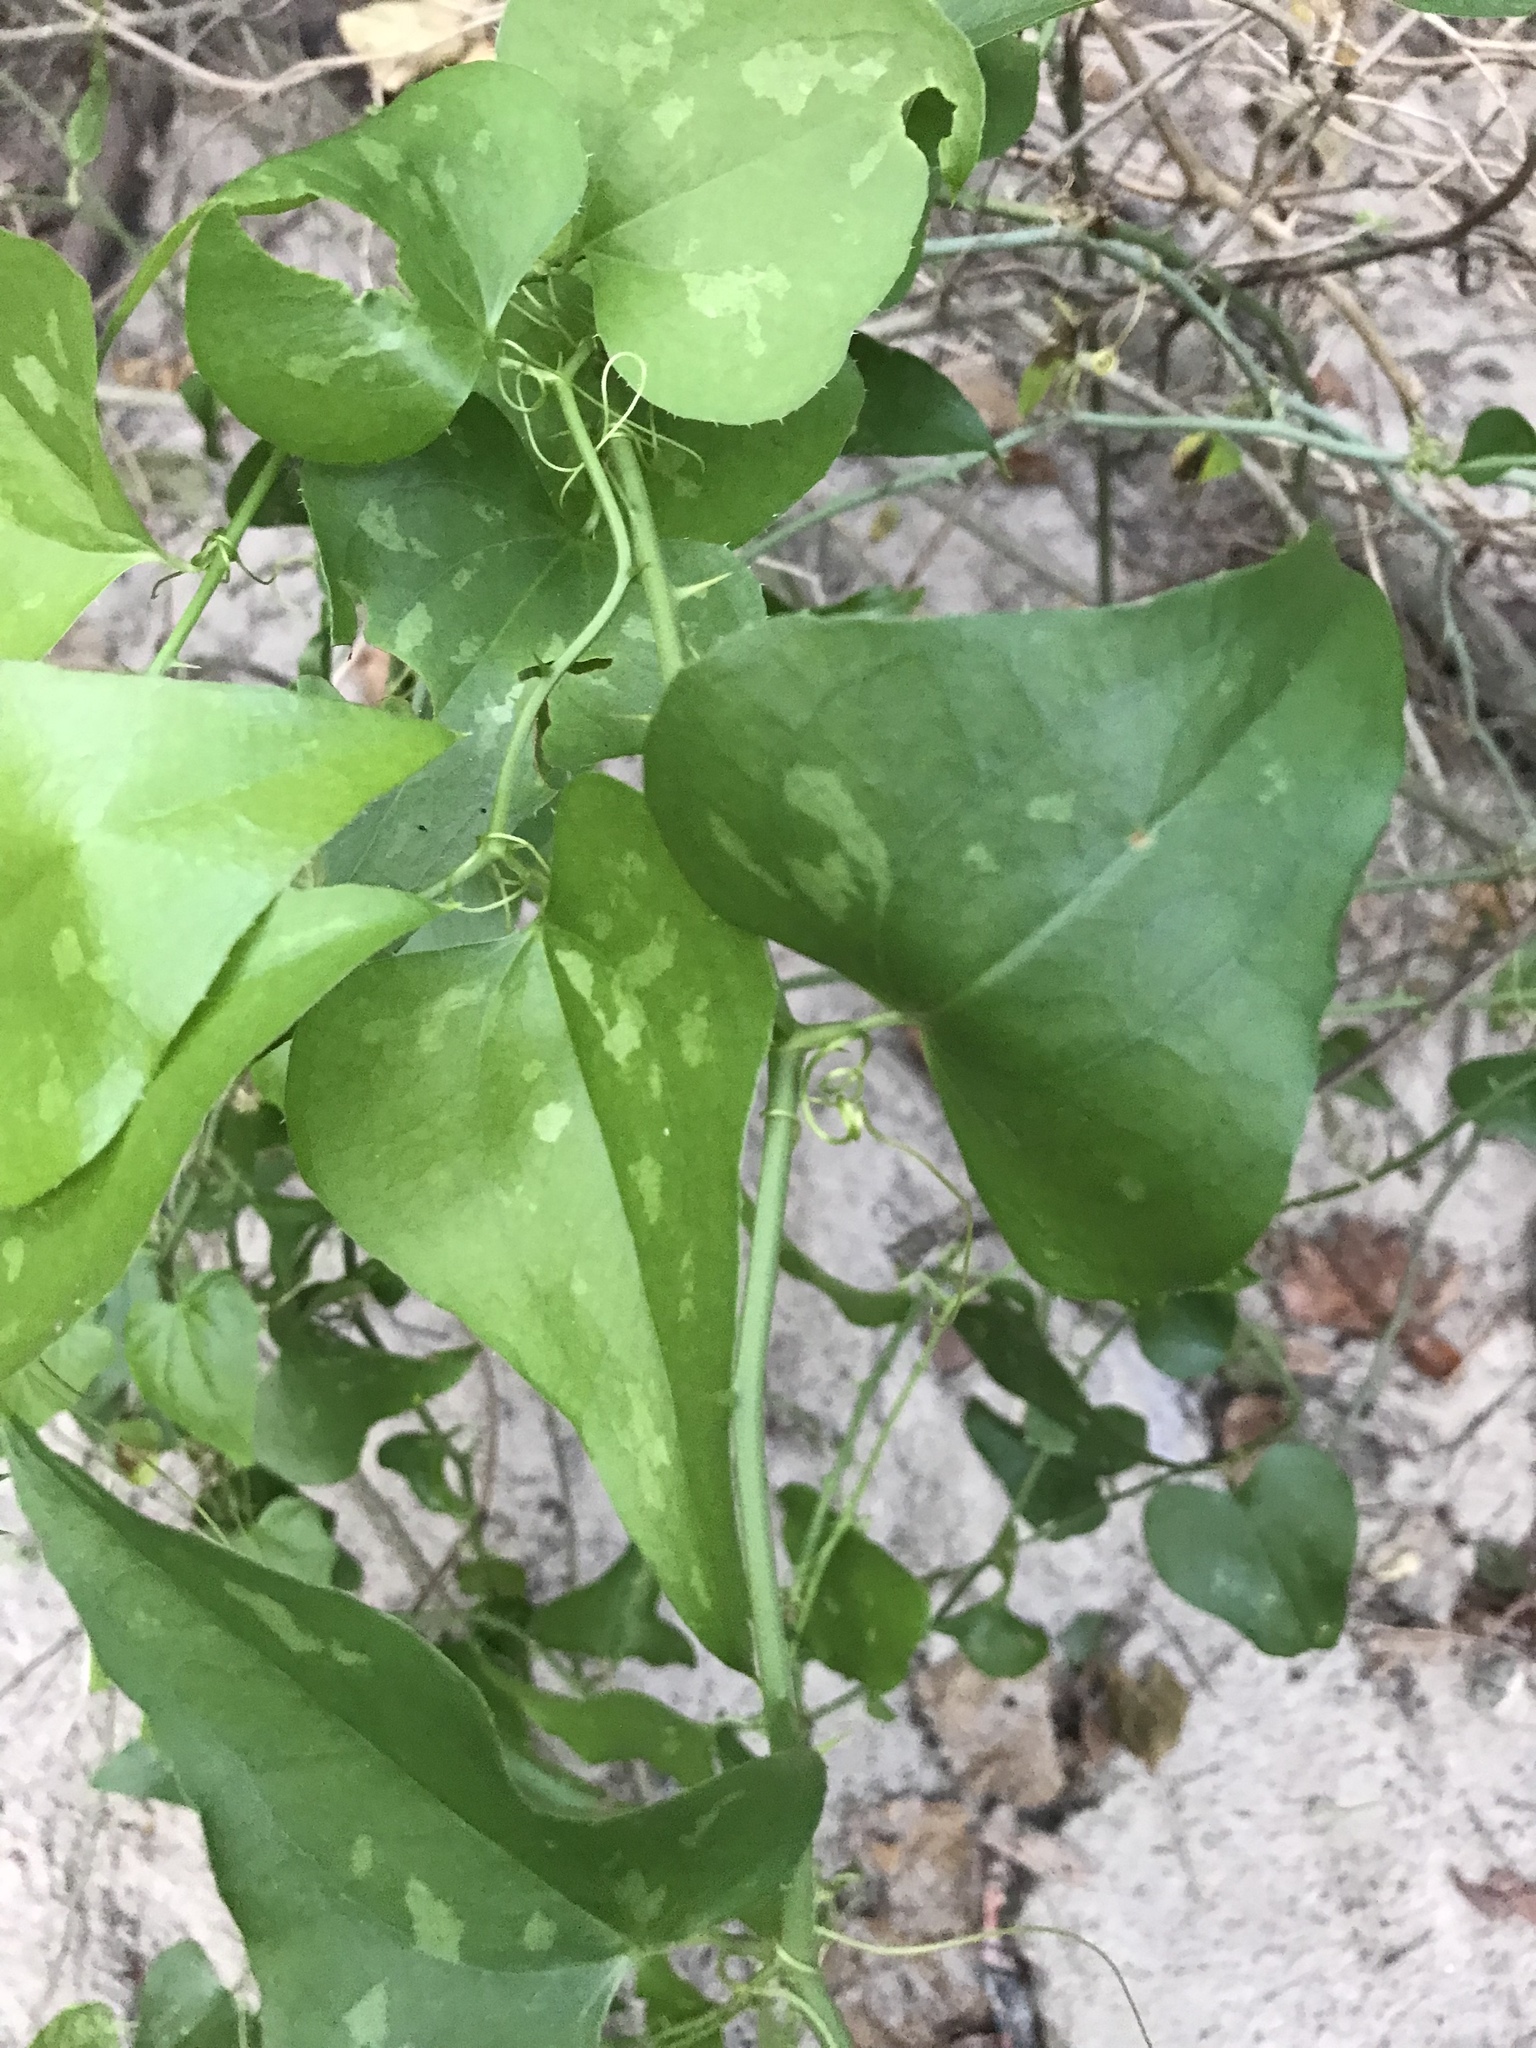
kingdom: Plantae
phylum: Tracheophyta
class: Liliopsida
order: Liliales
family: Smilacaceae
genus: Smilax
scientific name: Smilax bona-nox
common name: Catbrier
